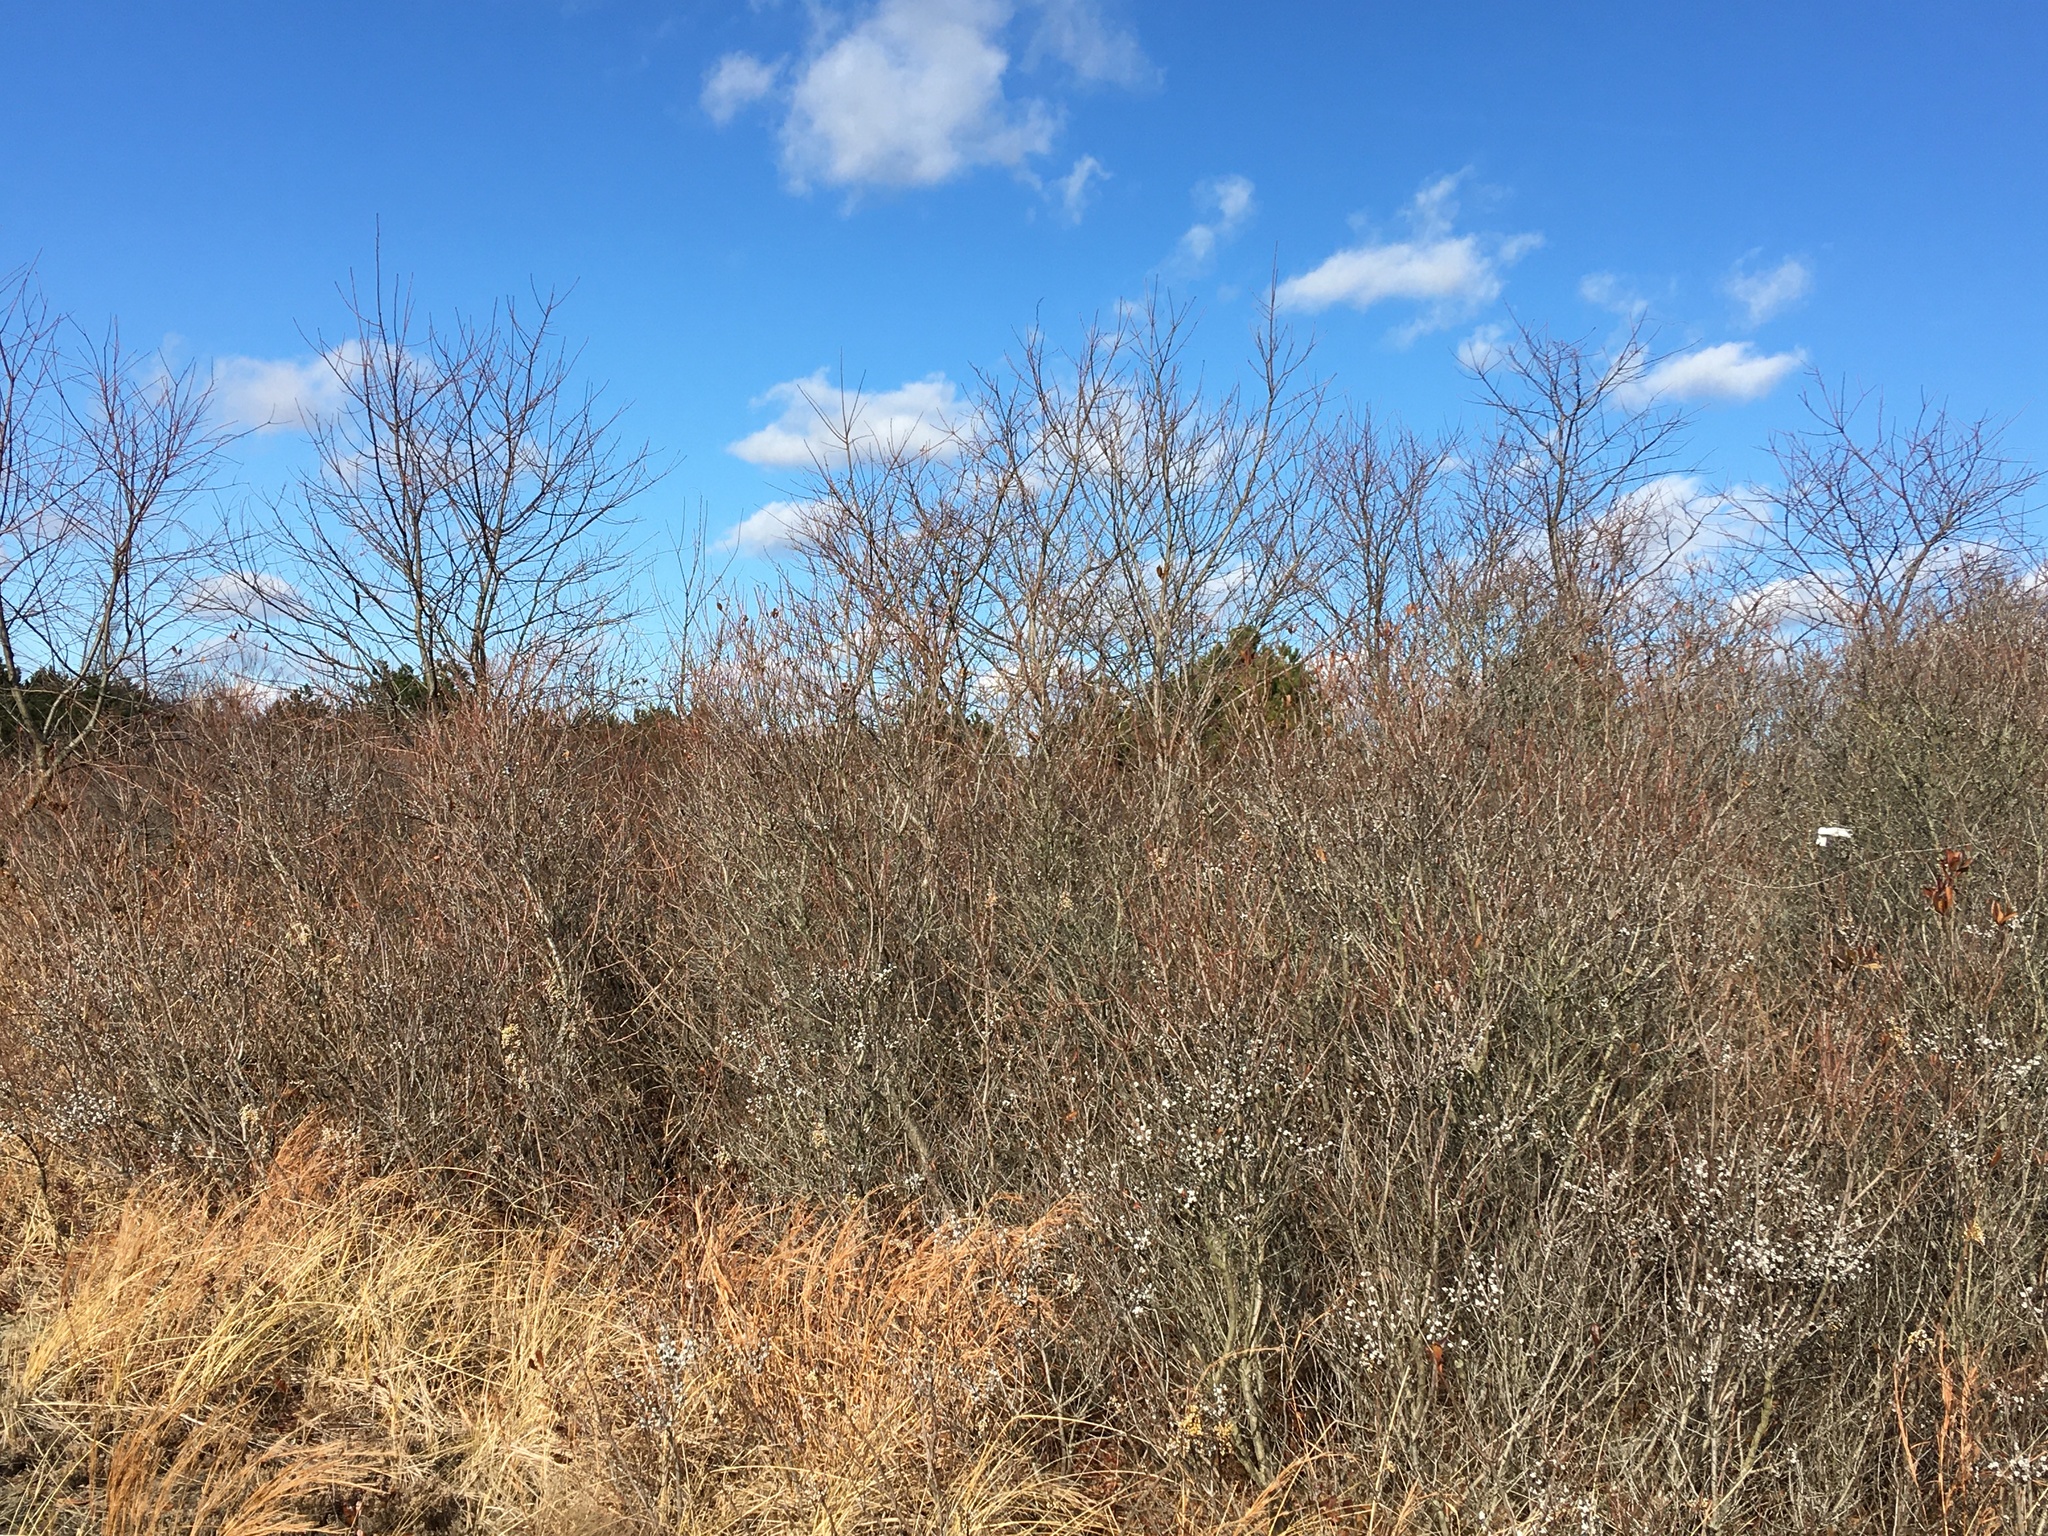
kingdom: Plantae
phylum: Tracheophyta
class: Magnoliopsida
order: Fagales
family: Myricaceae
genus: Morella
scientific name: Morella pensylvanica
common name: Northern bayberry
